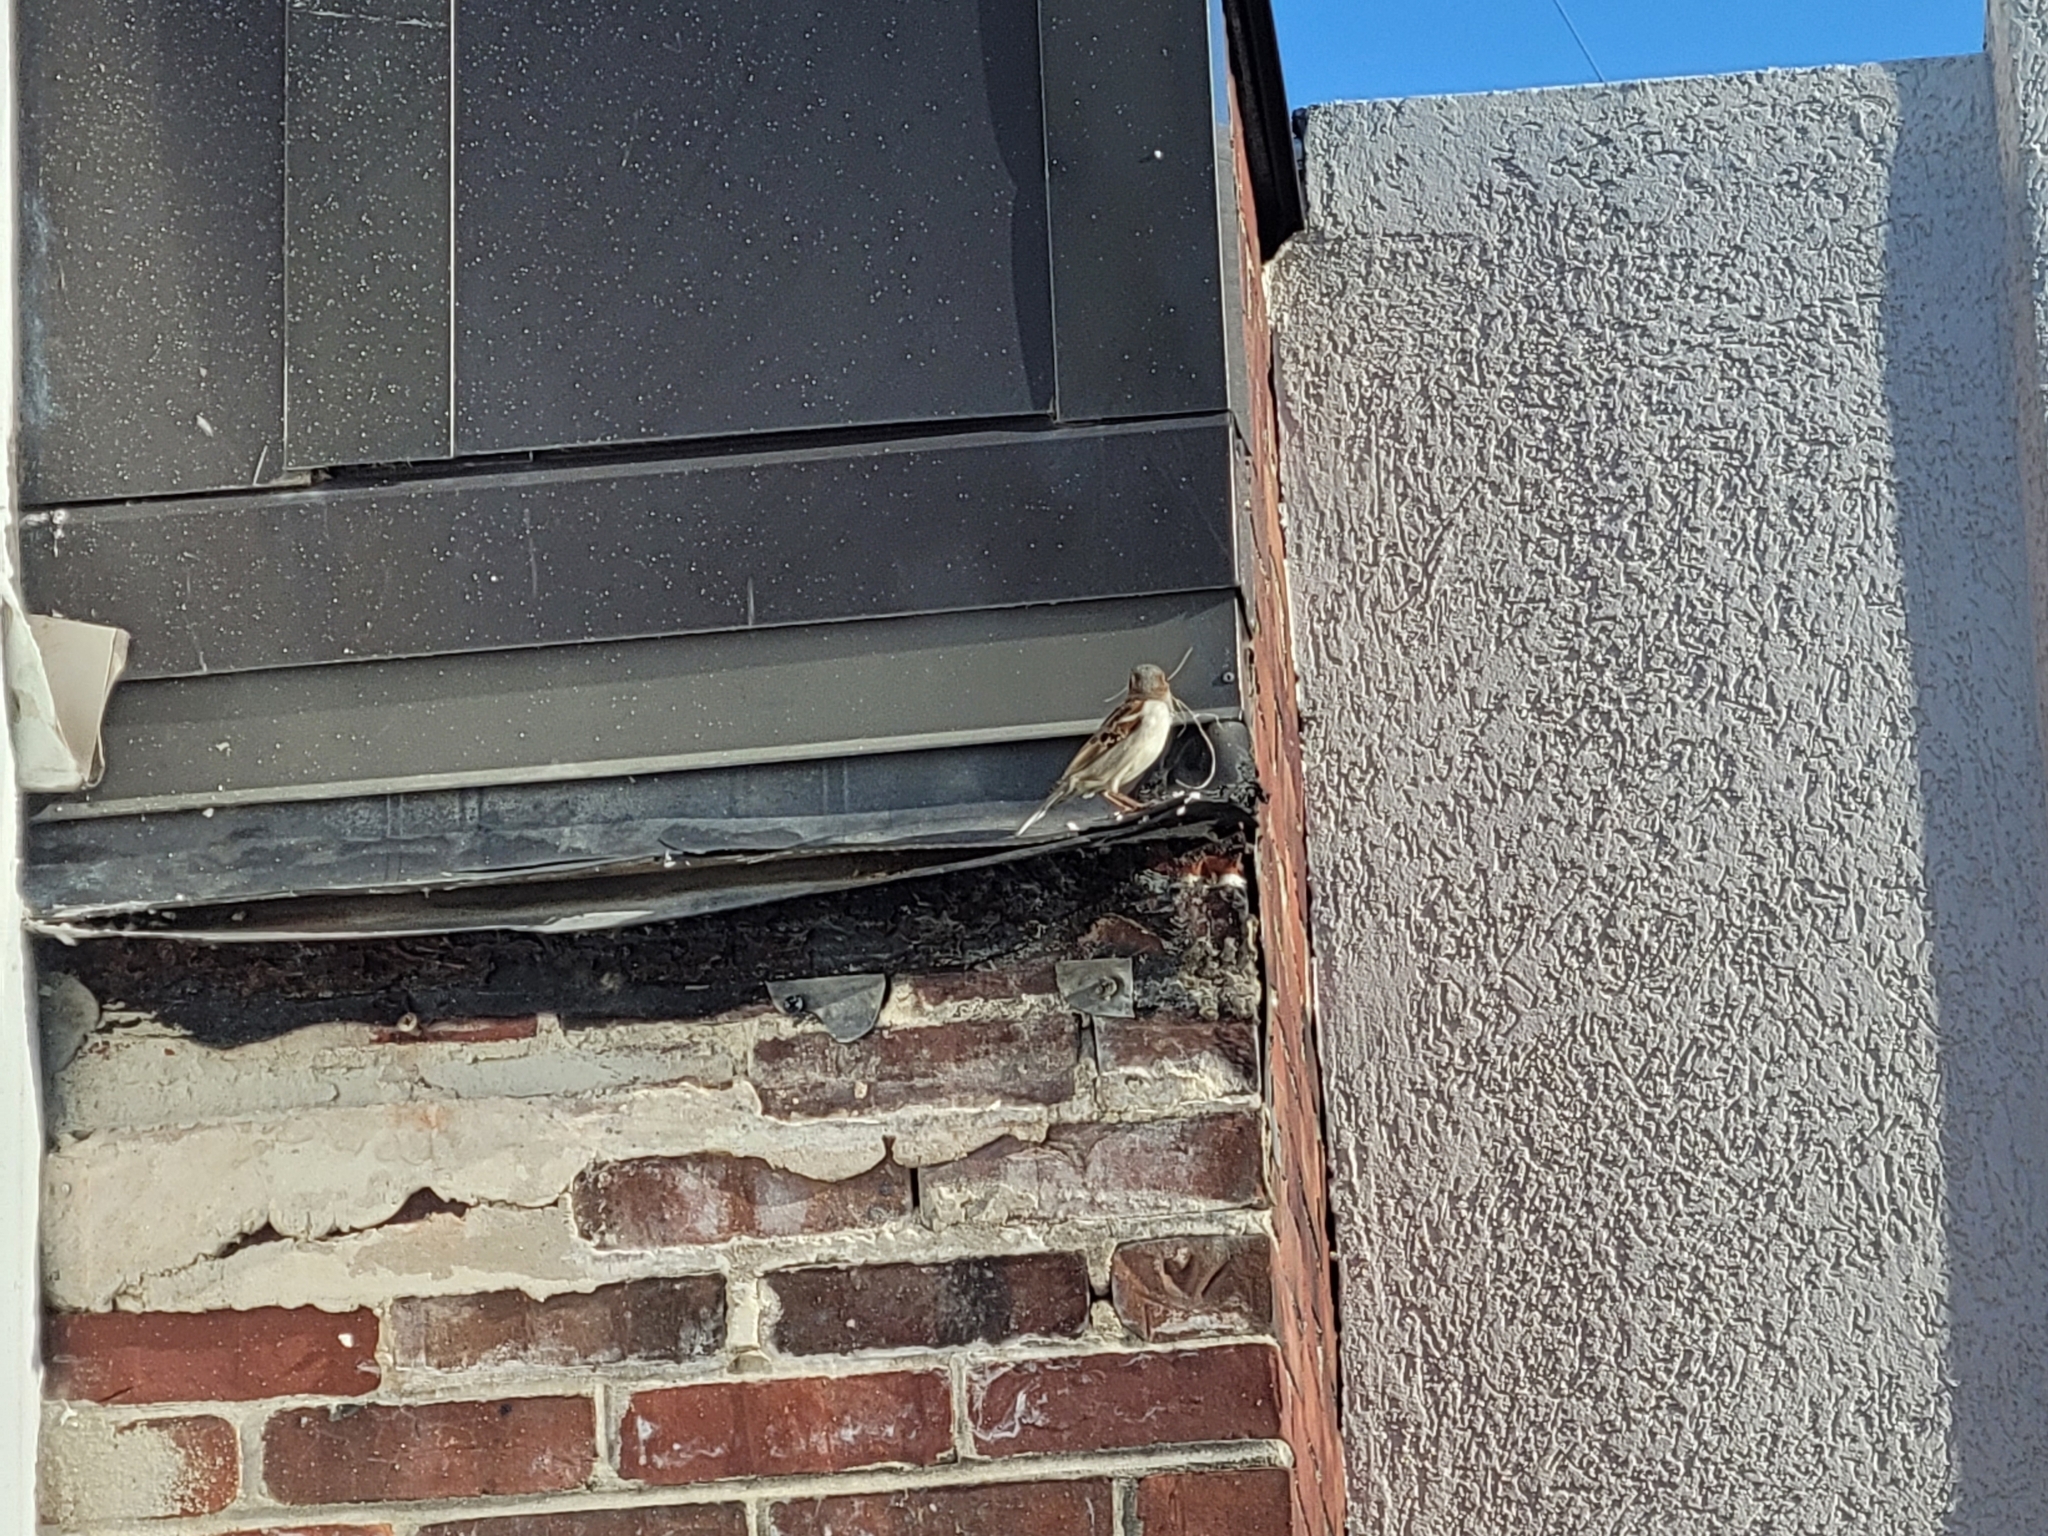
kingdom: Animalia
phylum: Chordata
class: Aves
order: Passeriformes
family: Passeridae
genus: Passer
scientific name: Passer domesticus
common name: House sparrow
